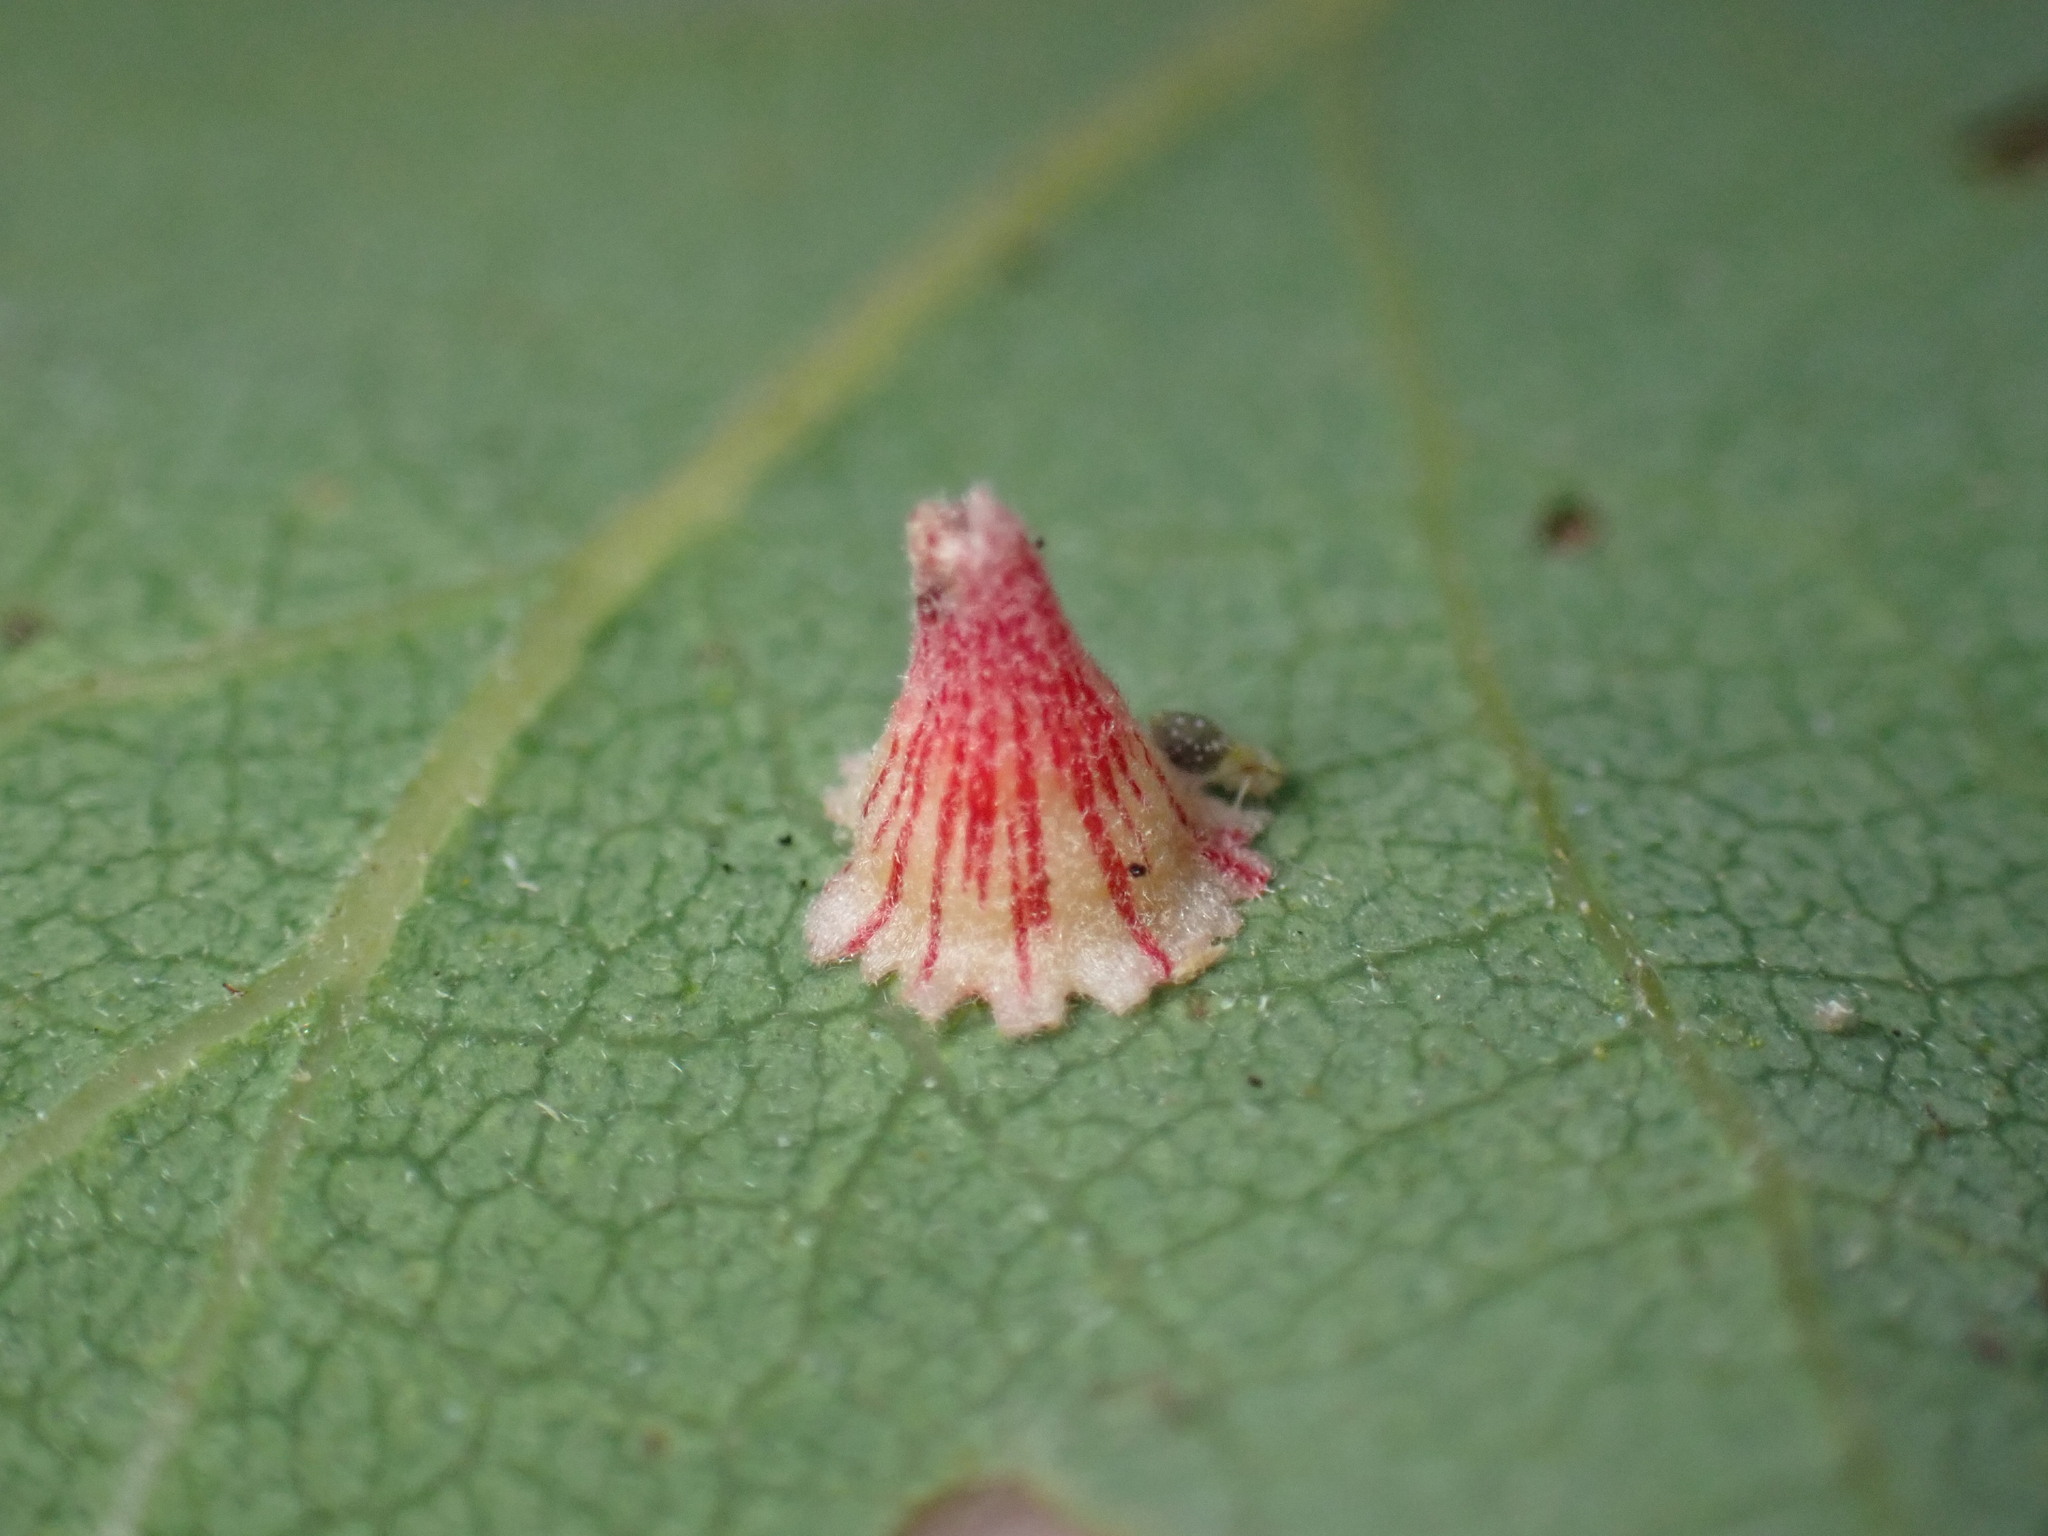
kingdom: Animalia
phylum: Arthropoda
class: Insecta
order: Hymenoptera
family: Cynipidae
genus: Andricus
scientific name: Andricus
